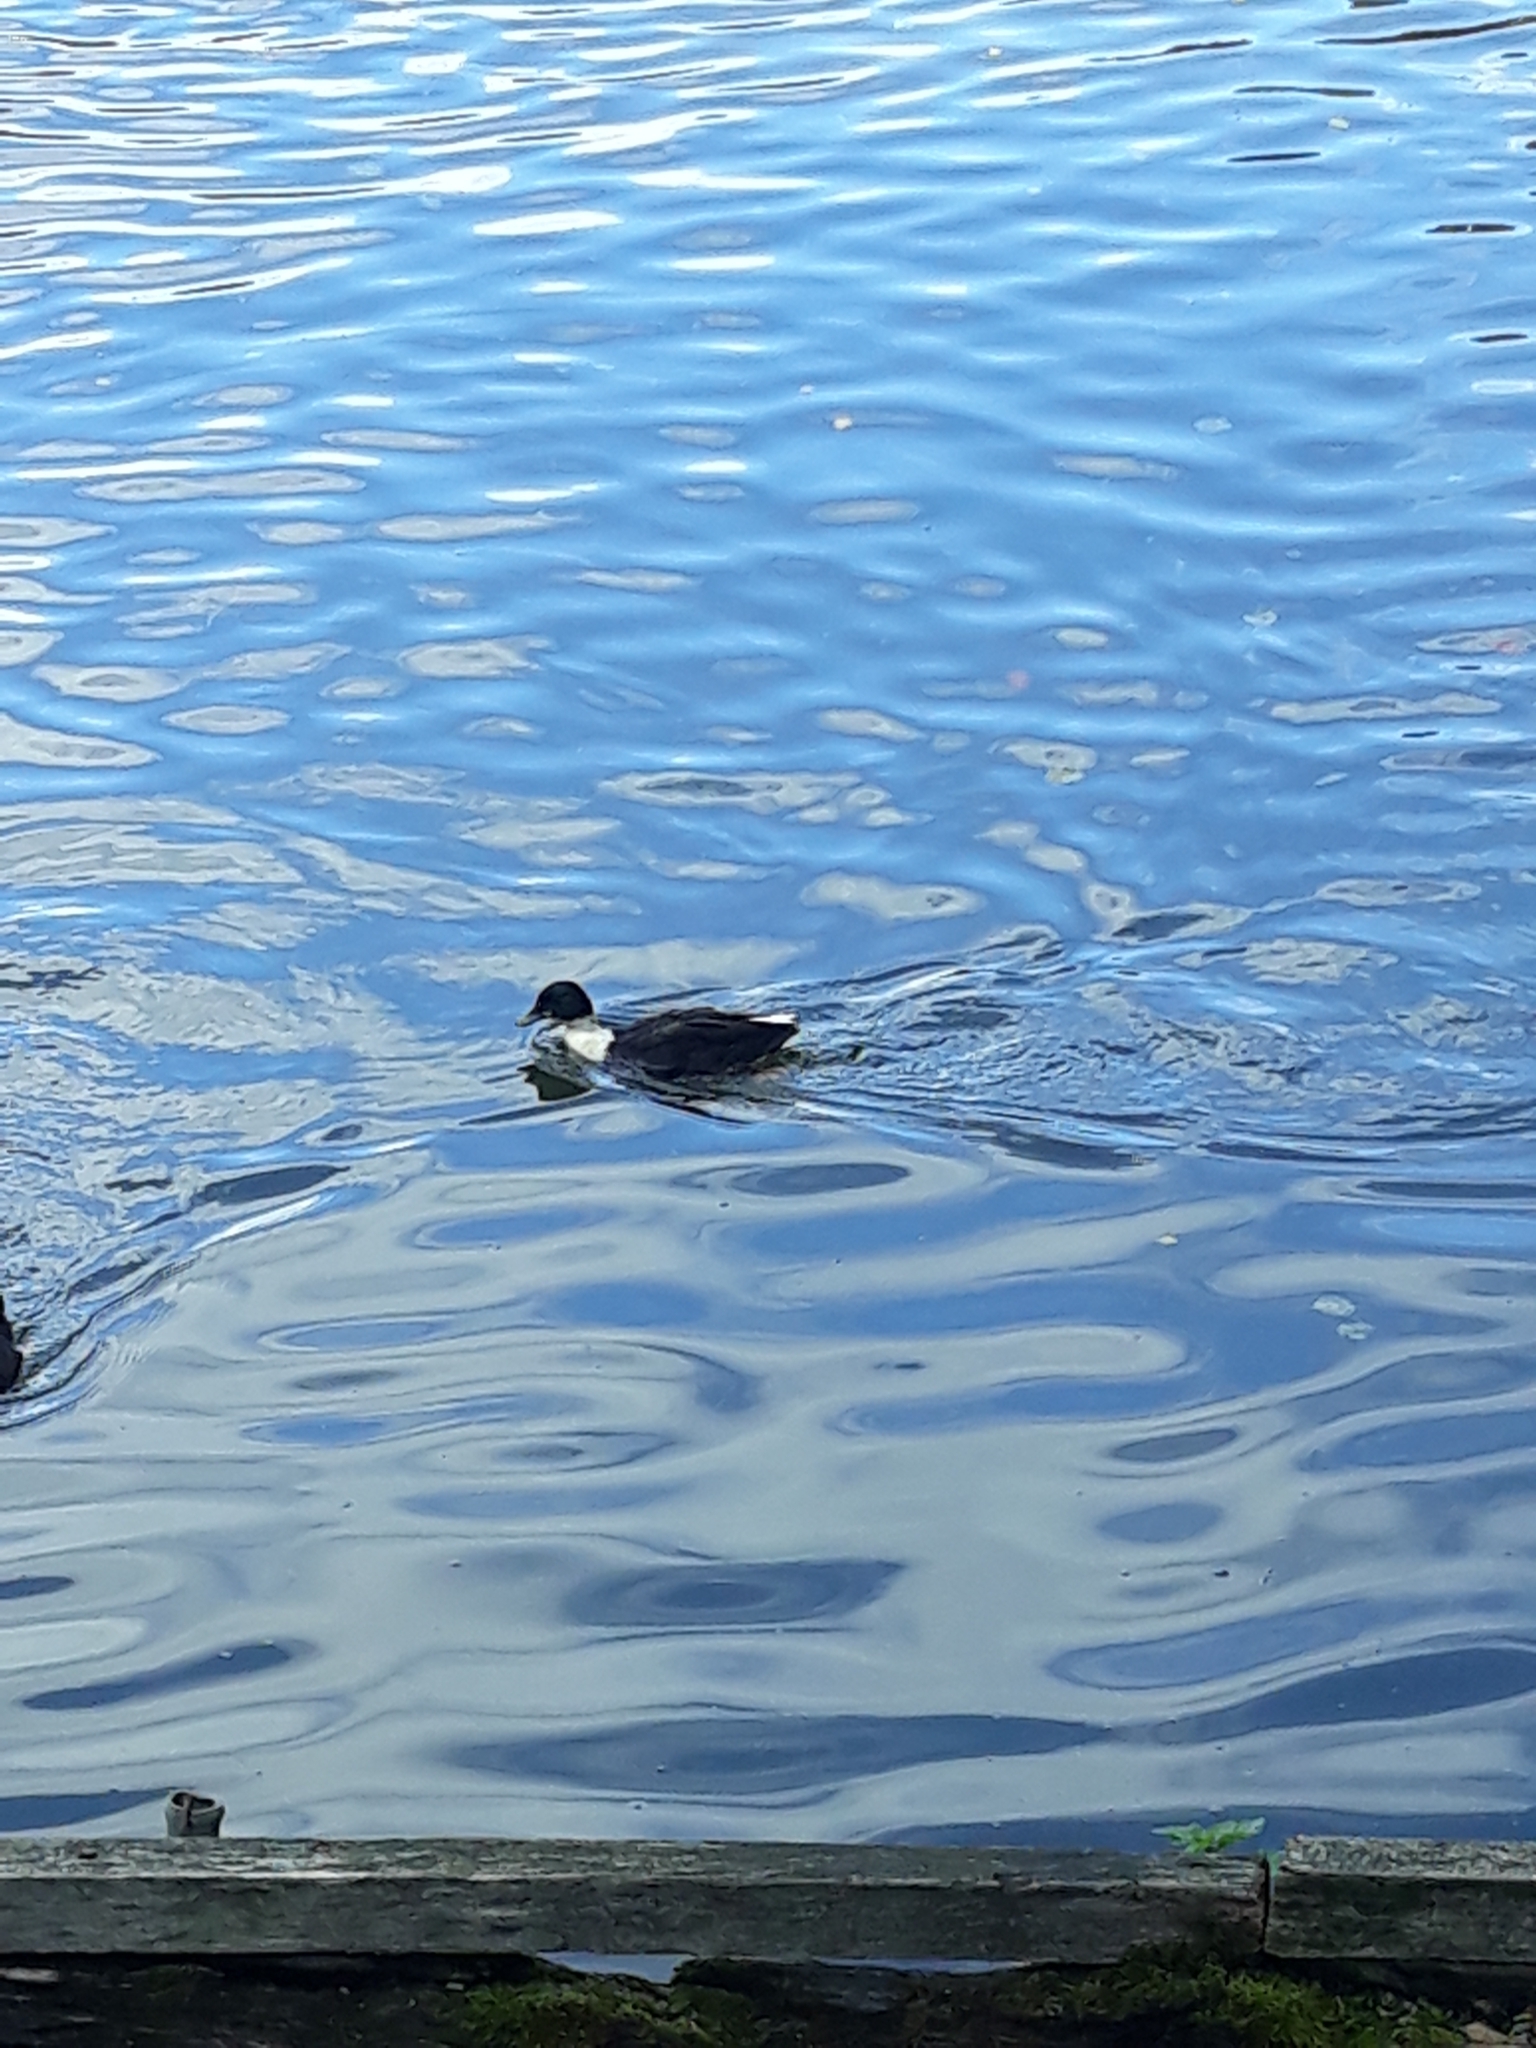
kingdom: Animalia
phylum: Chordata
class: Aves
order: Anseriformes
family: Anatidae
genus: Anas
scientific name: Anas platyrhynchos
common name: Mallard
